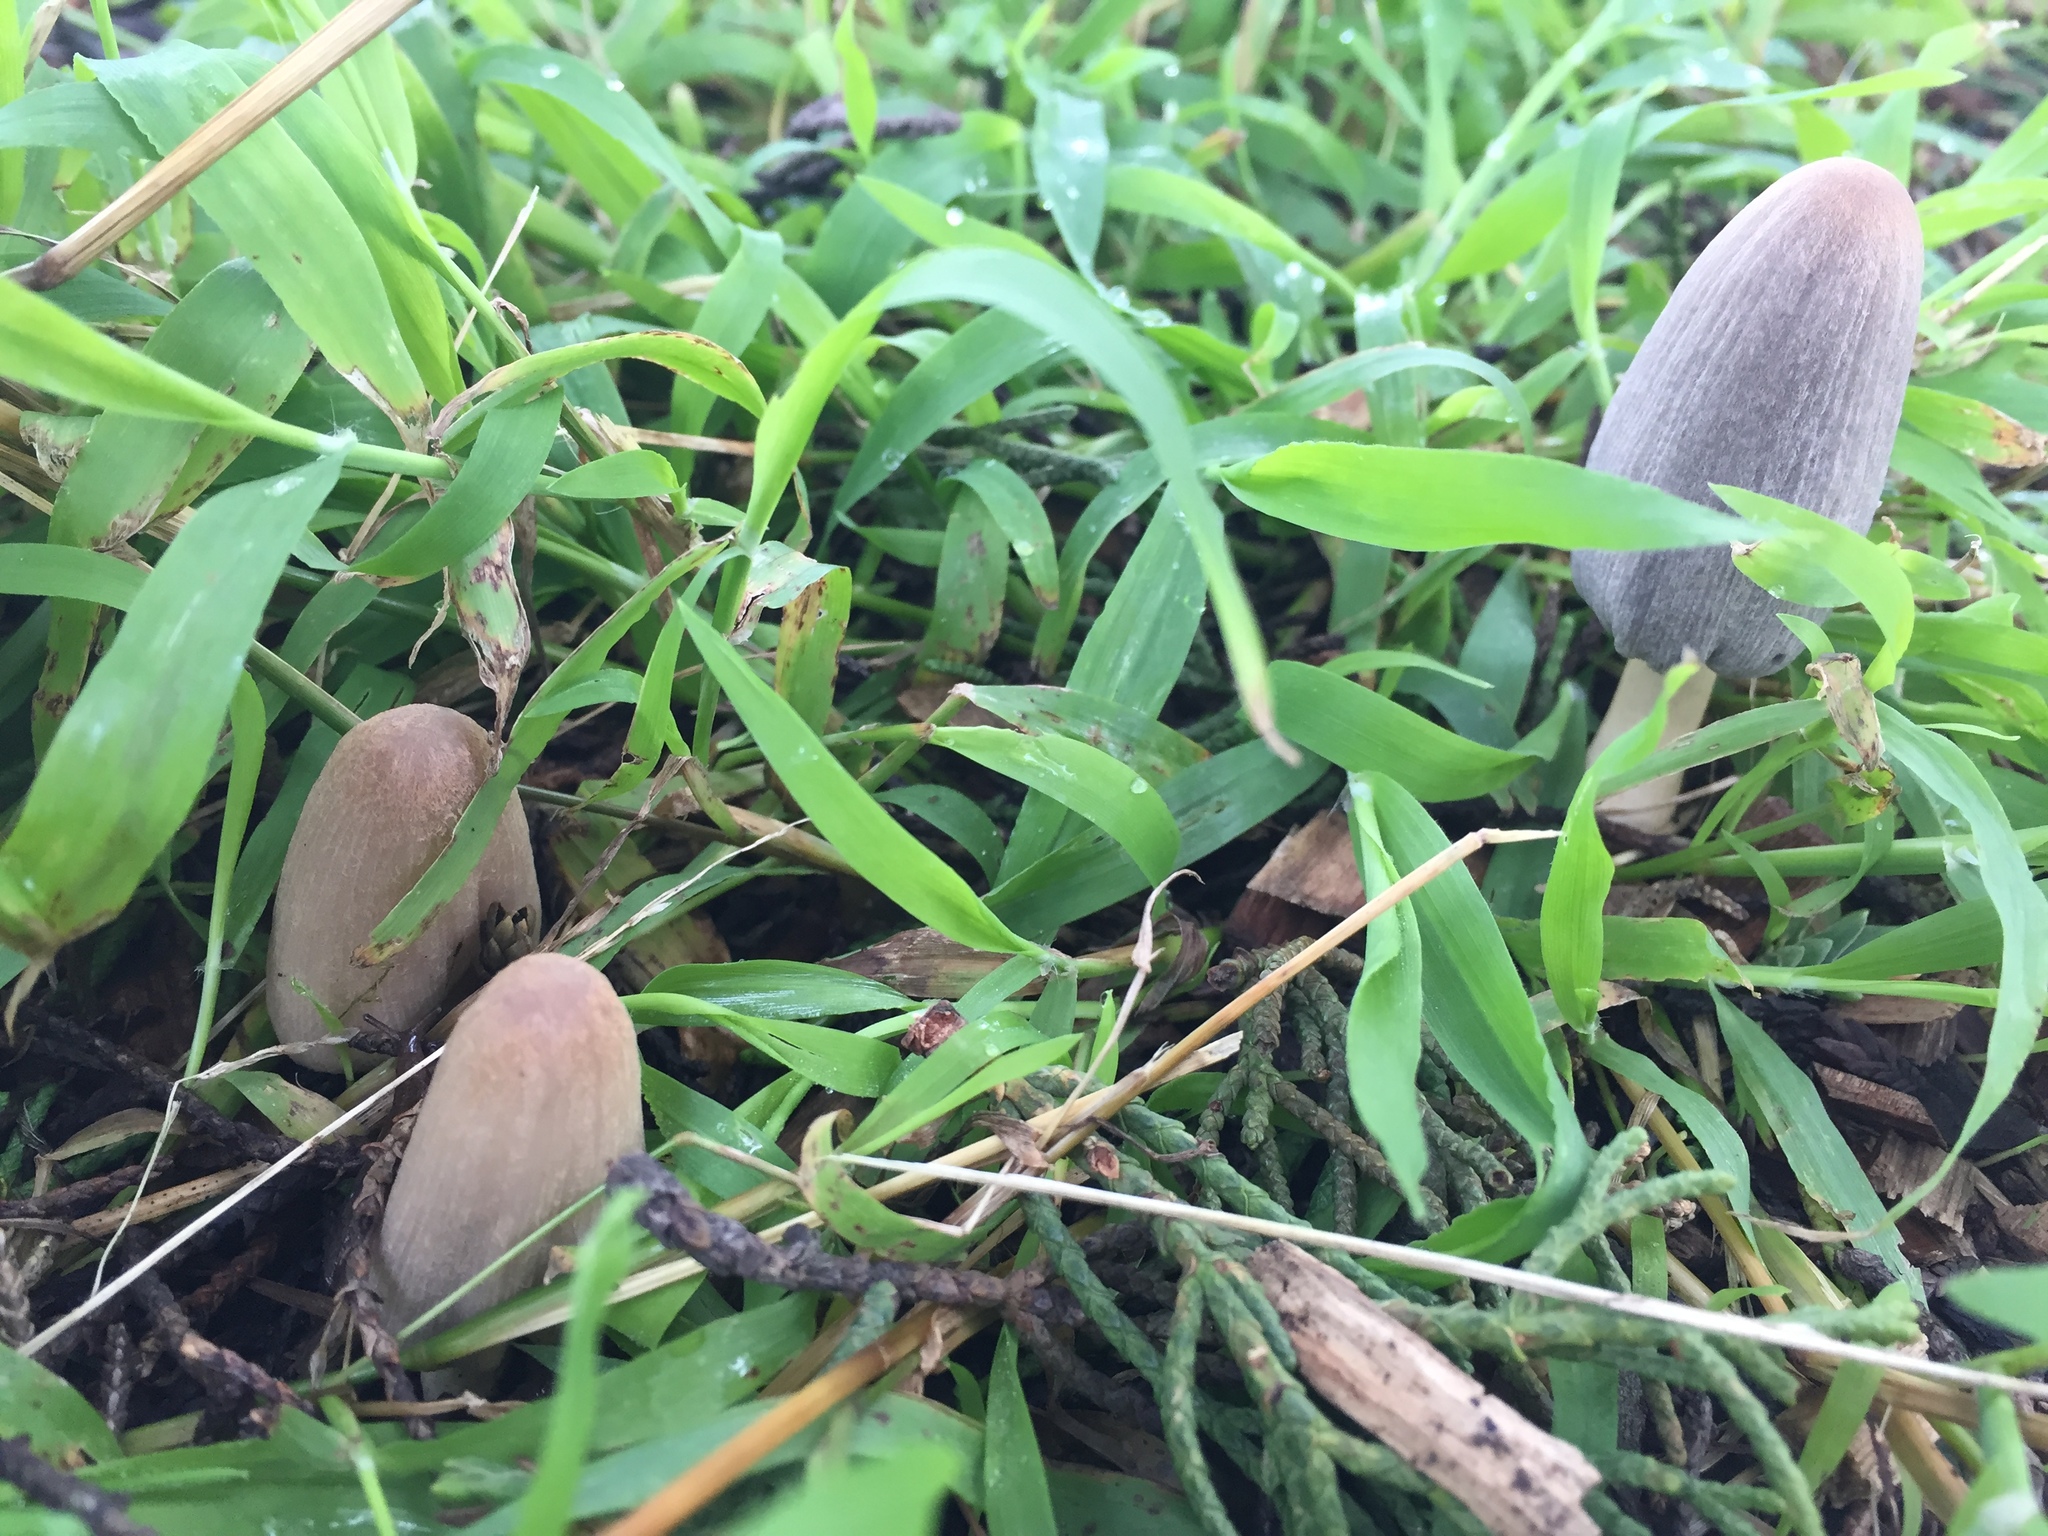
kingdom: Fungi
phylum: Basidiomycota
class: Agaricomycetes
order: Agaricales
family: Psathyrellaceae
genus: Parasola
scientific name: Parasola auricoma
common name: Goldenhaired inkcap
